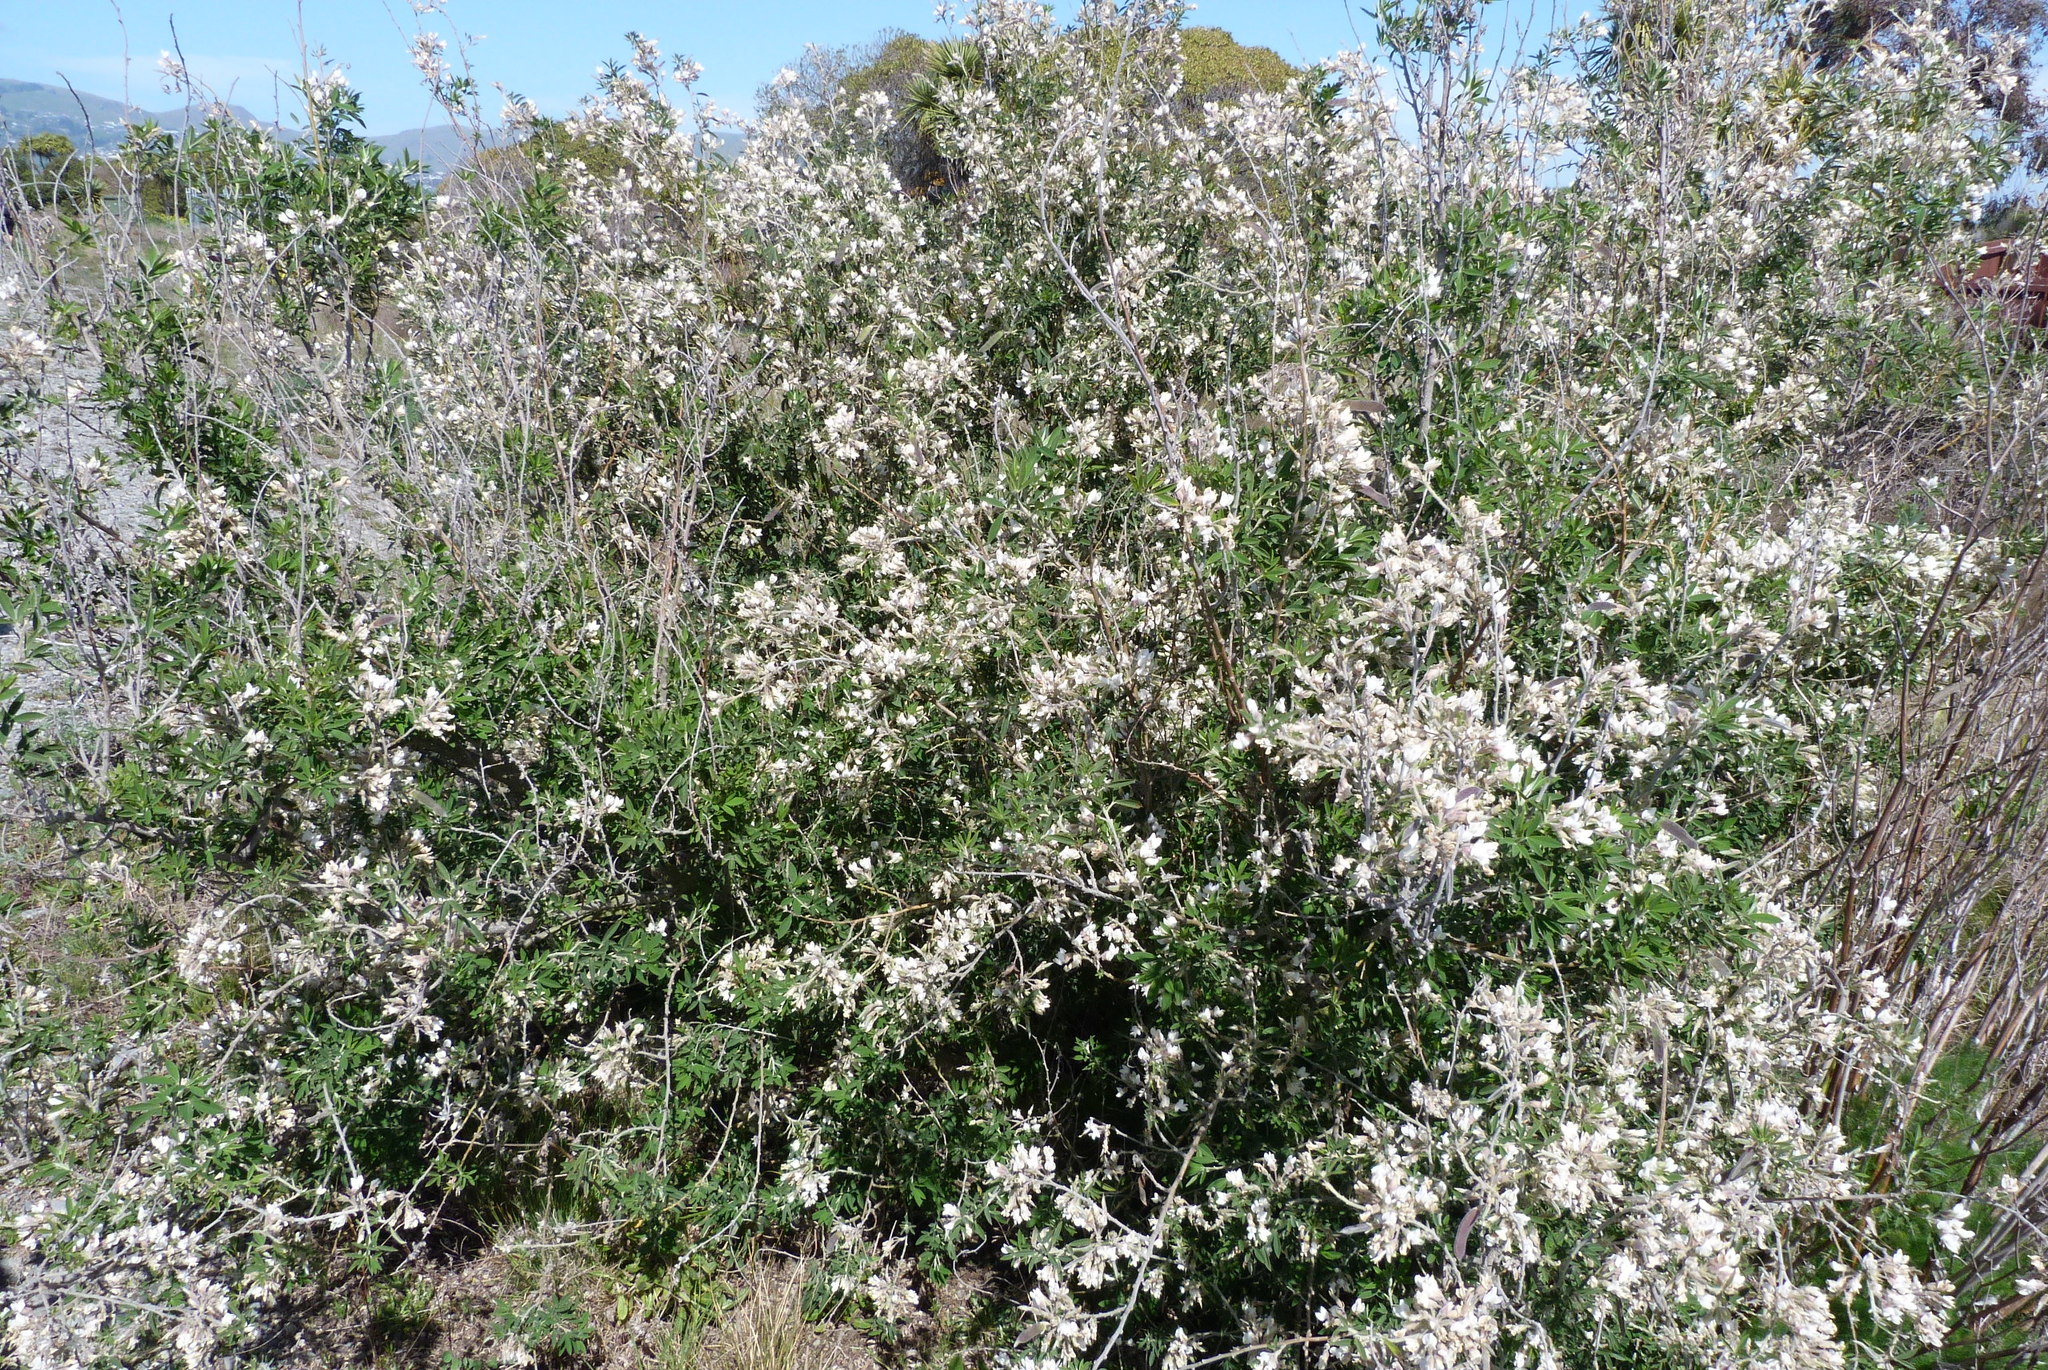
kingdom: Plantae
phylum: Tracheophyta
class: Magnoliopsida
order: Fabales
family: Fabaceae
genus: Chamaecytisus
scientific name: Chamaecytisus prolifer
